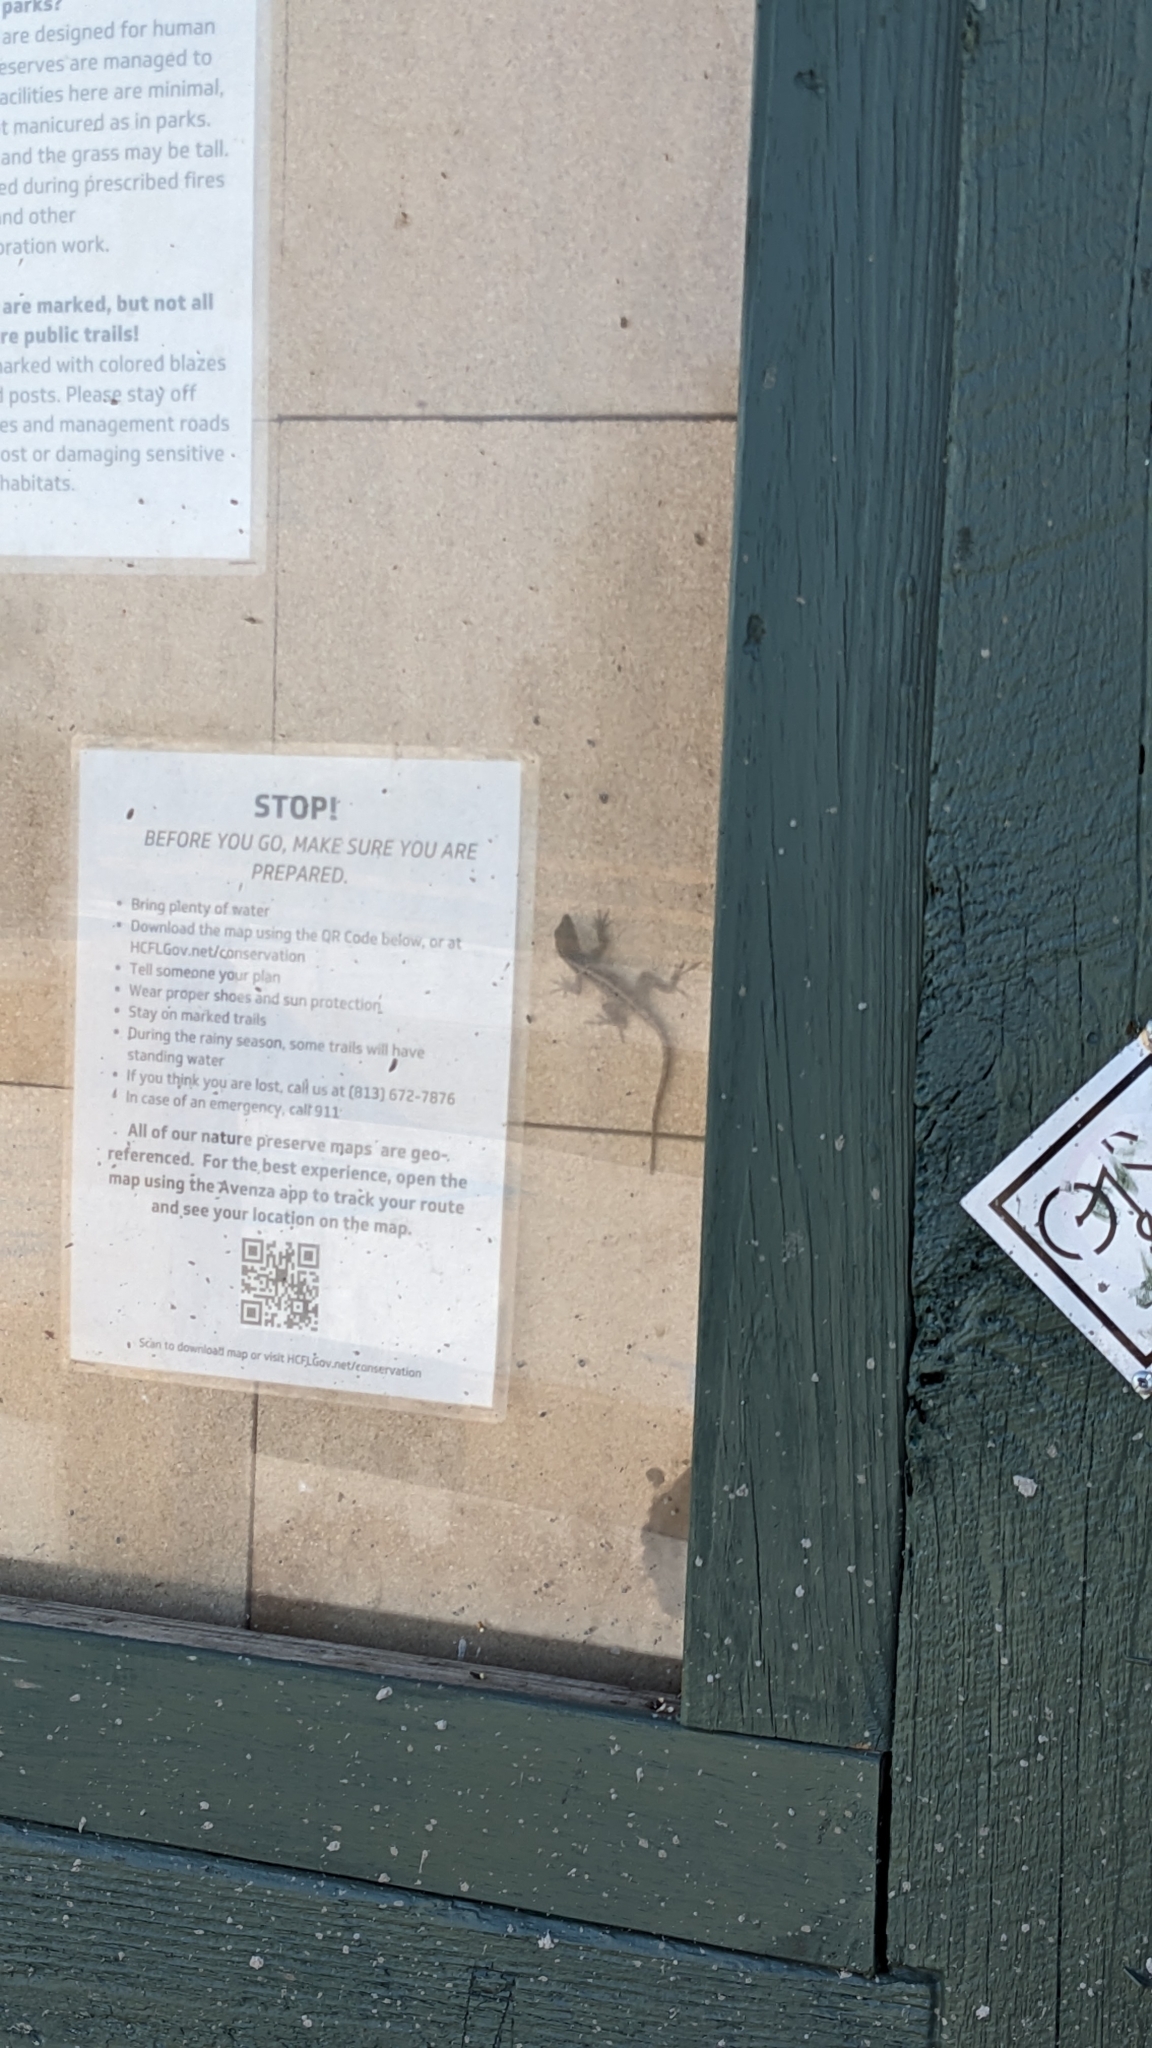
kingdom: Animalia
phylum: Chordata
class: Squamata
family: Dactyloidae
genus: Anolis
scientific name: Anolis sagrei
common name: Brown anole
